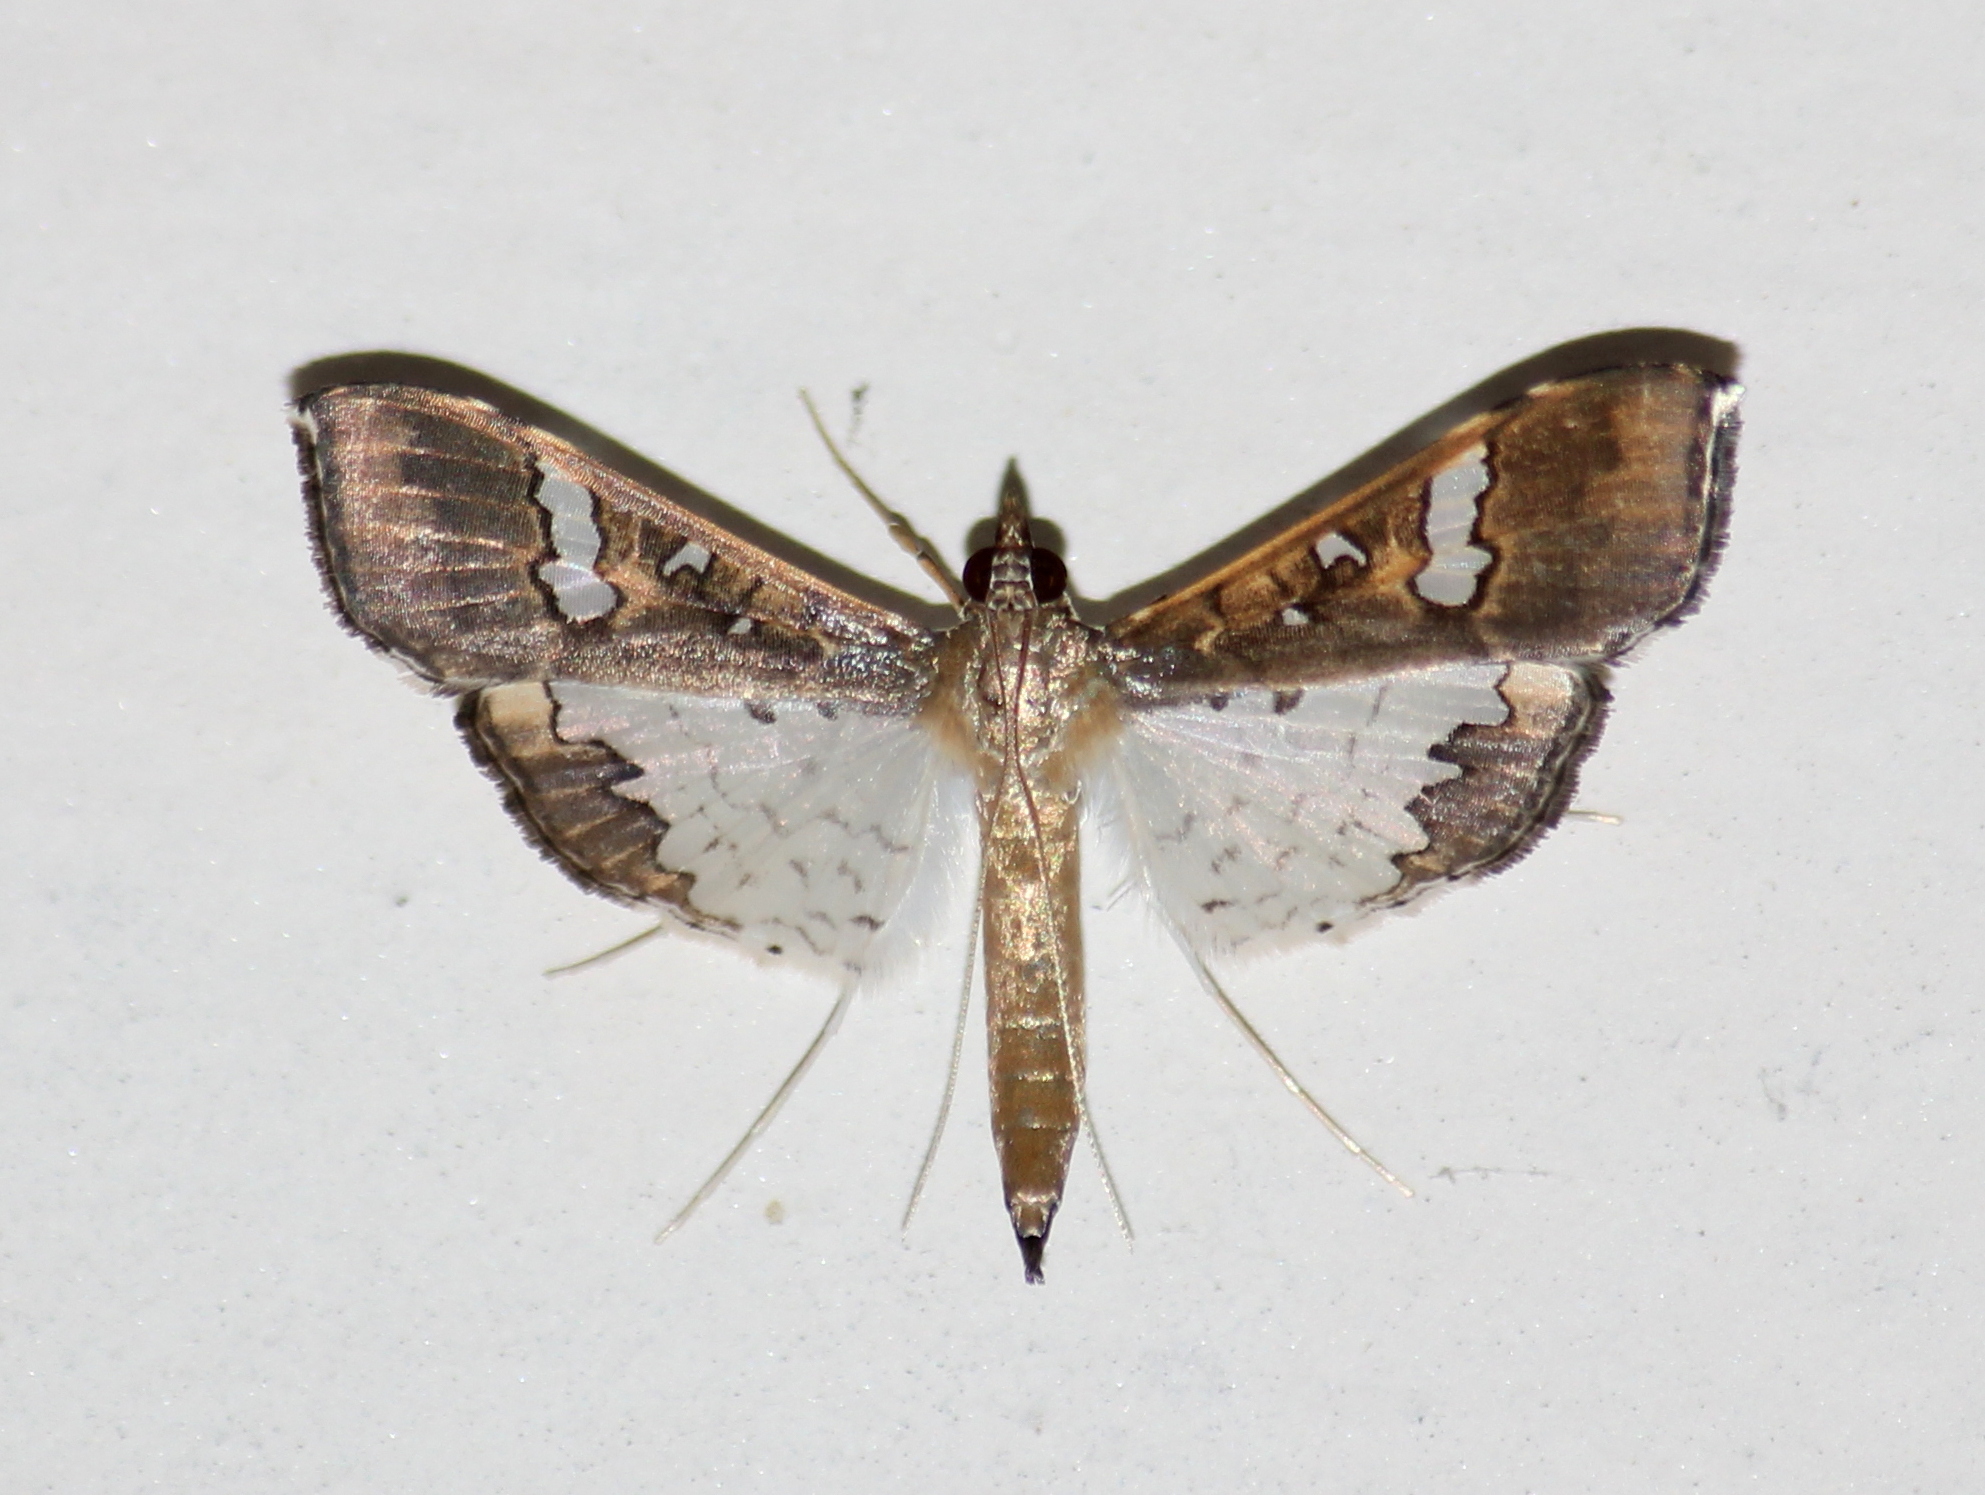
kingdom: Animalia
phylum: Arthropoda
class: Insecta
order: Lepidoptera
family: Crambidae
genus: Maruca
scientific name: Maruca vitrata
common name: Maruca pod borer
